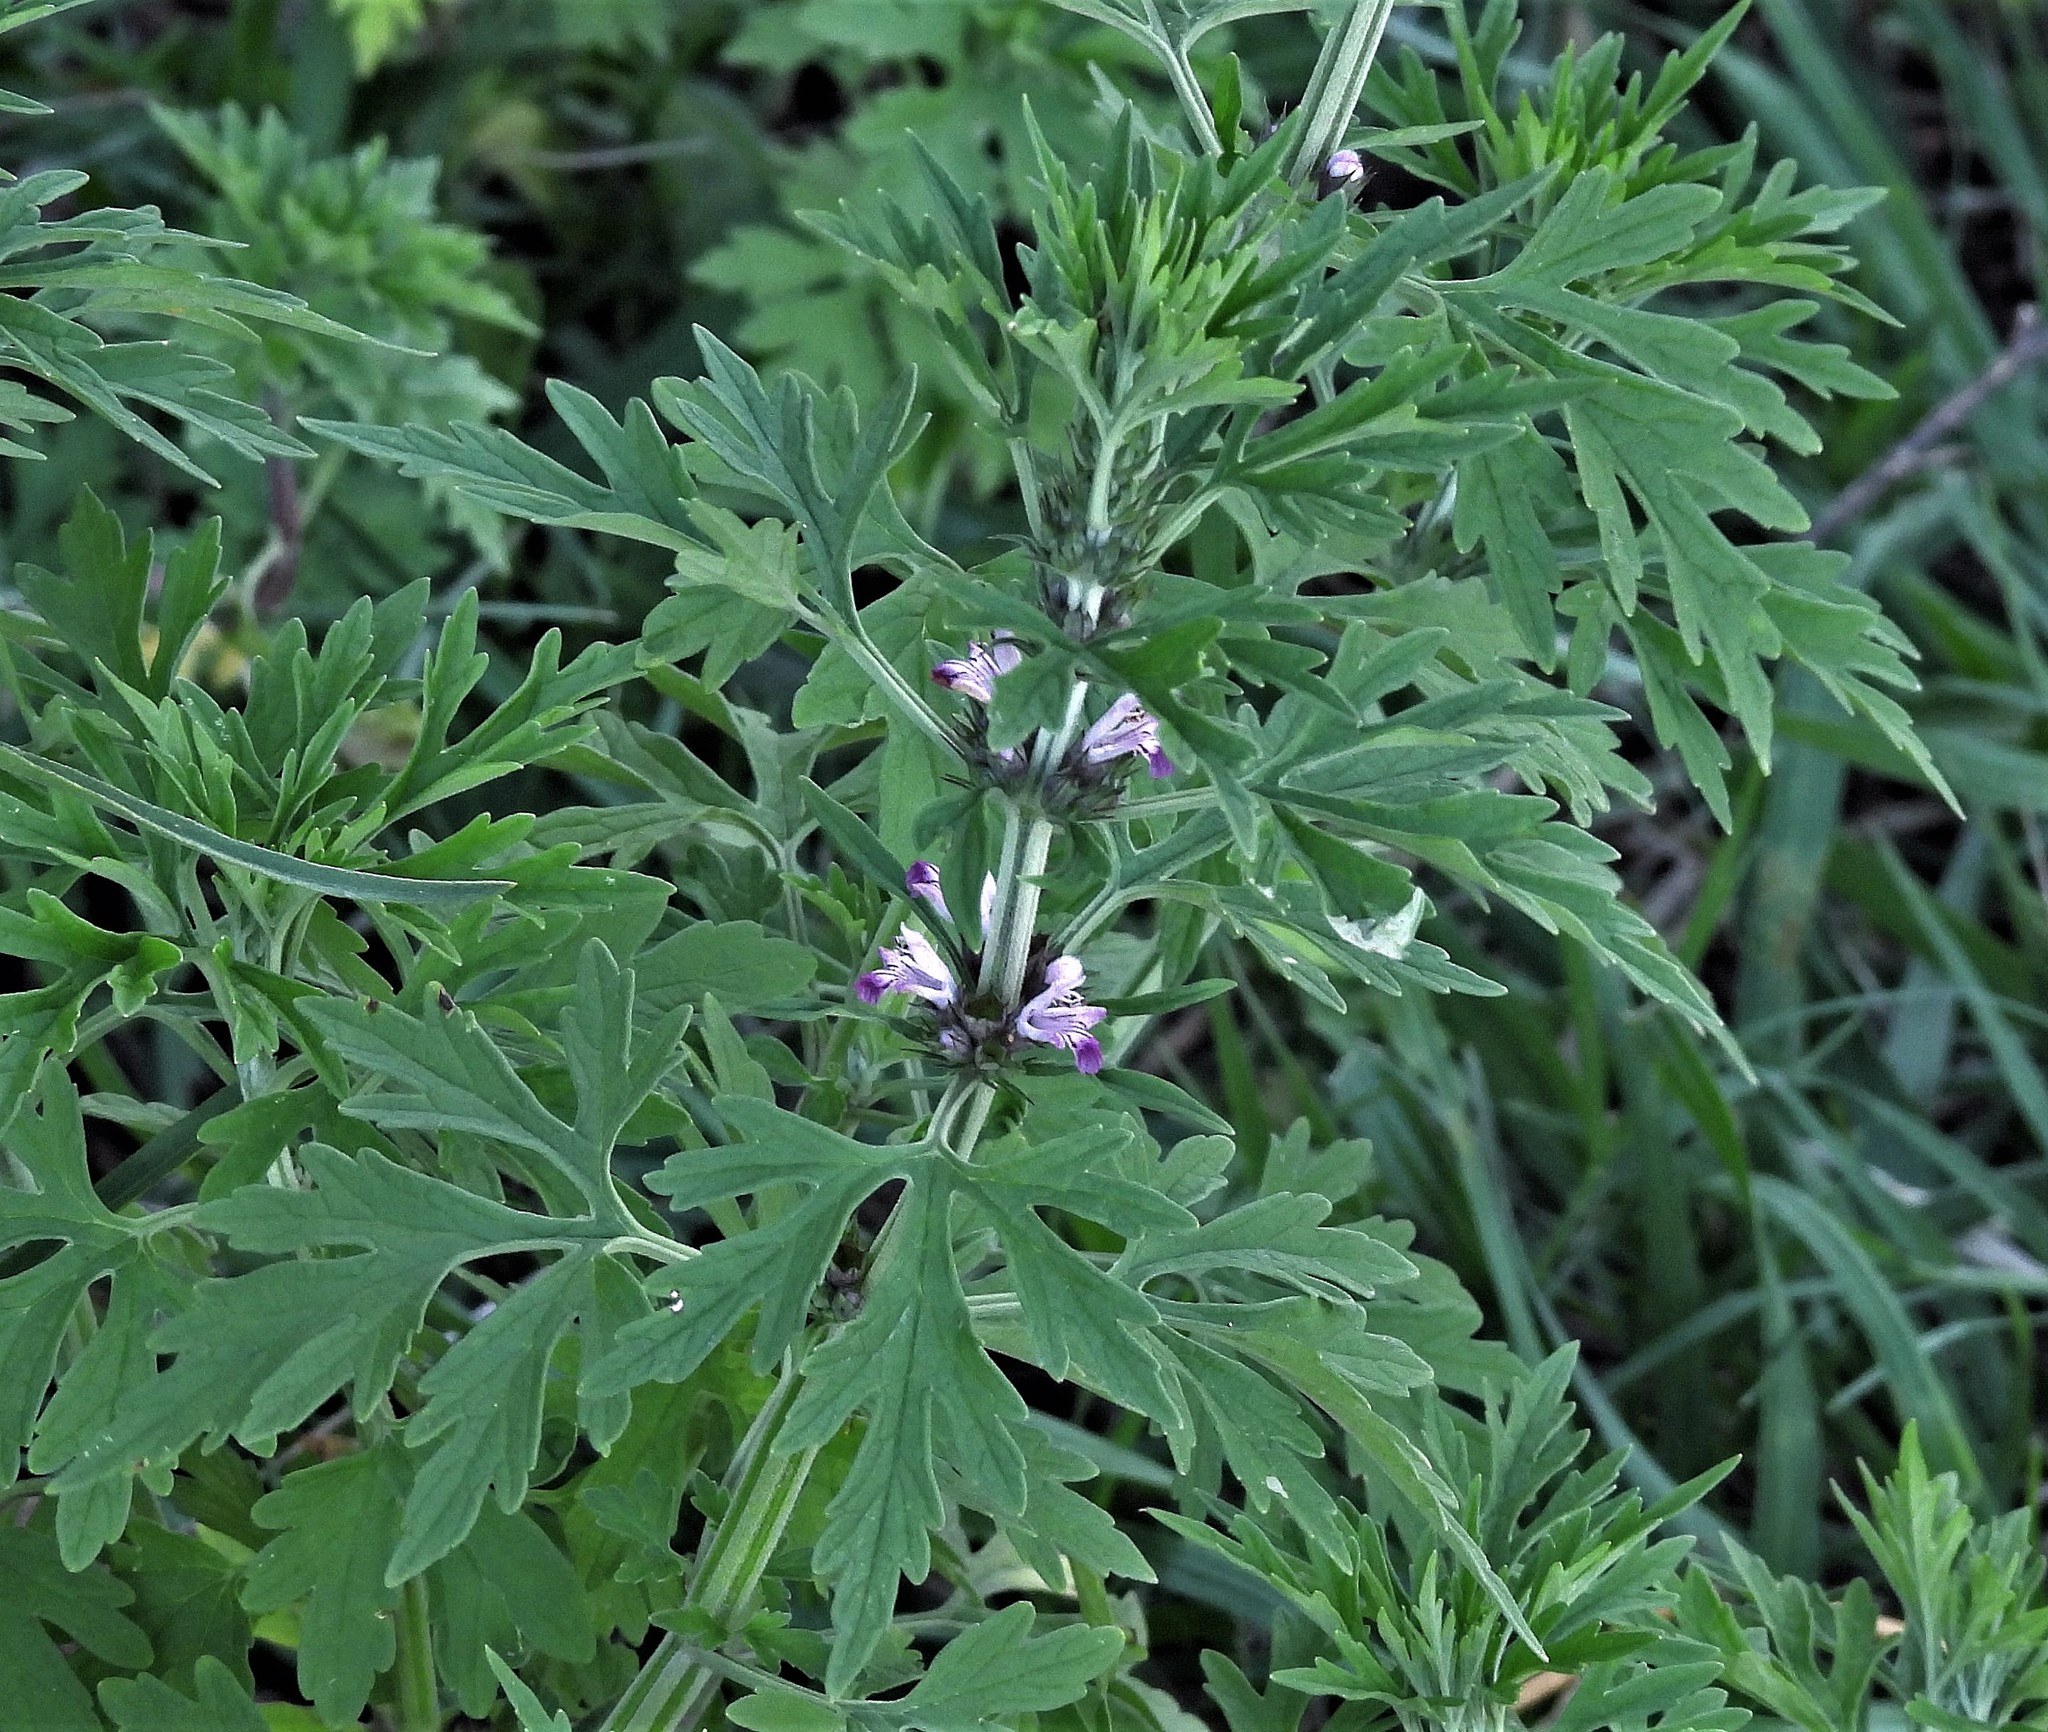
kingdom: Plantae
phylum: Tracheophyta
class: Magnoliopsida
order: Lamiales
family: Lamiaceae
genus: Leonurus
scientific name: Leonurus sibiricus
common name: Honeyweed
